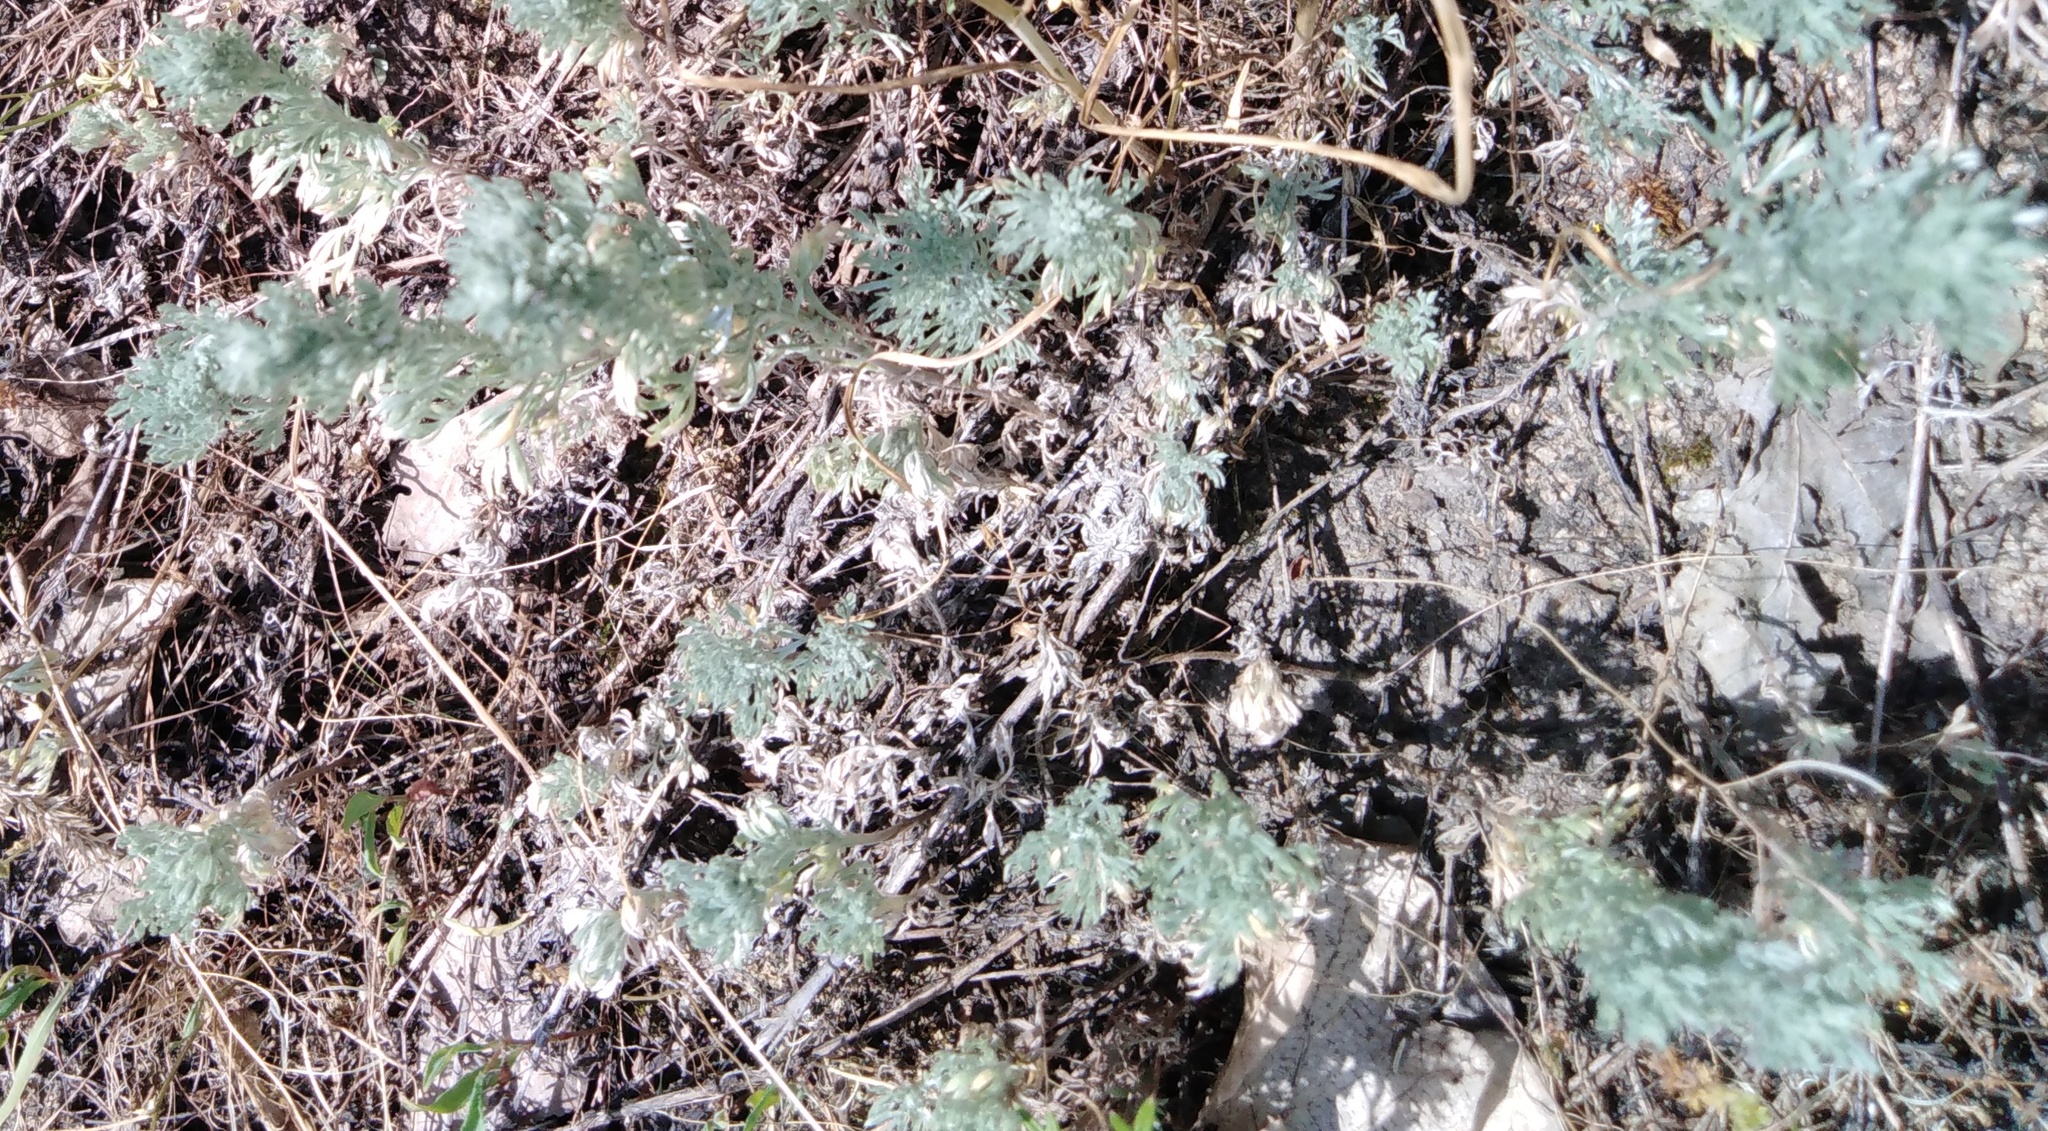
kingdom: Plantae
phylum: Tracheophyta
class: Magnoliopsida
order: Asterales
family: Asteraceae
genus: Artemisia
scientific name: Artemisia austriaca
